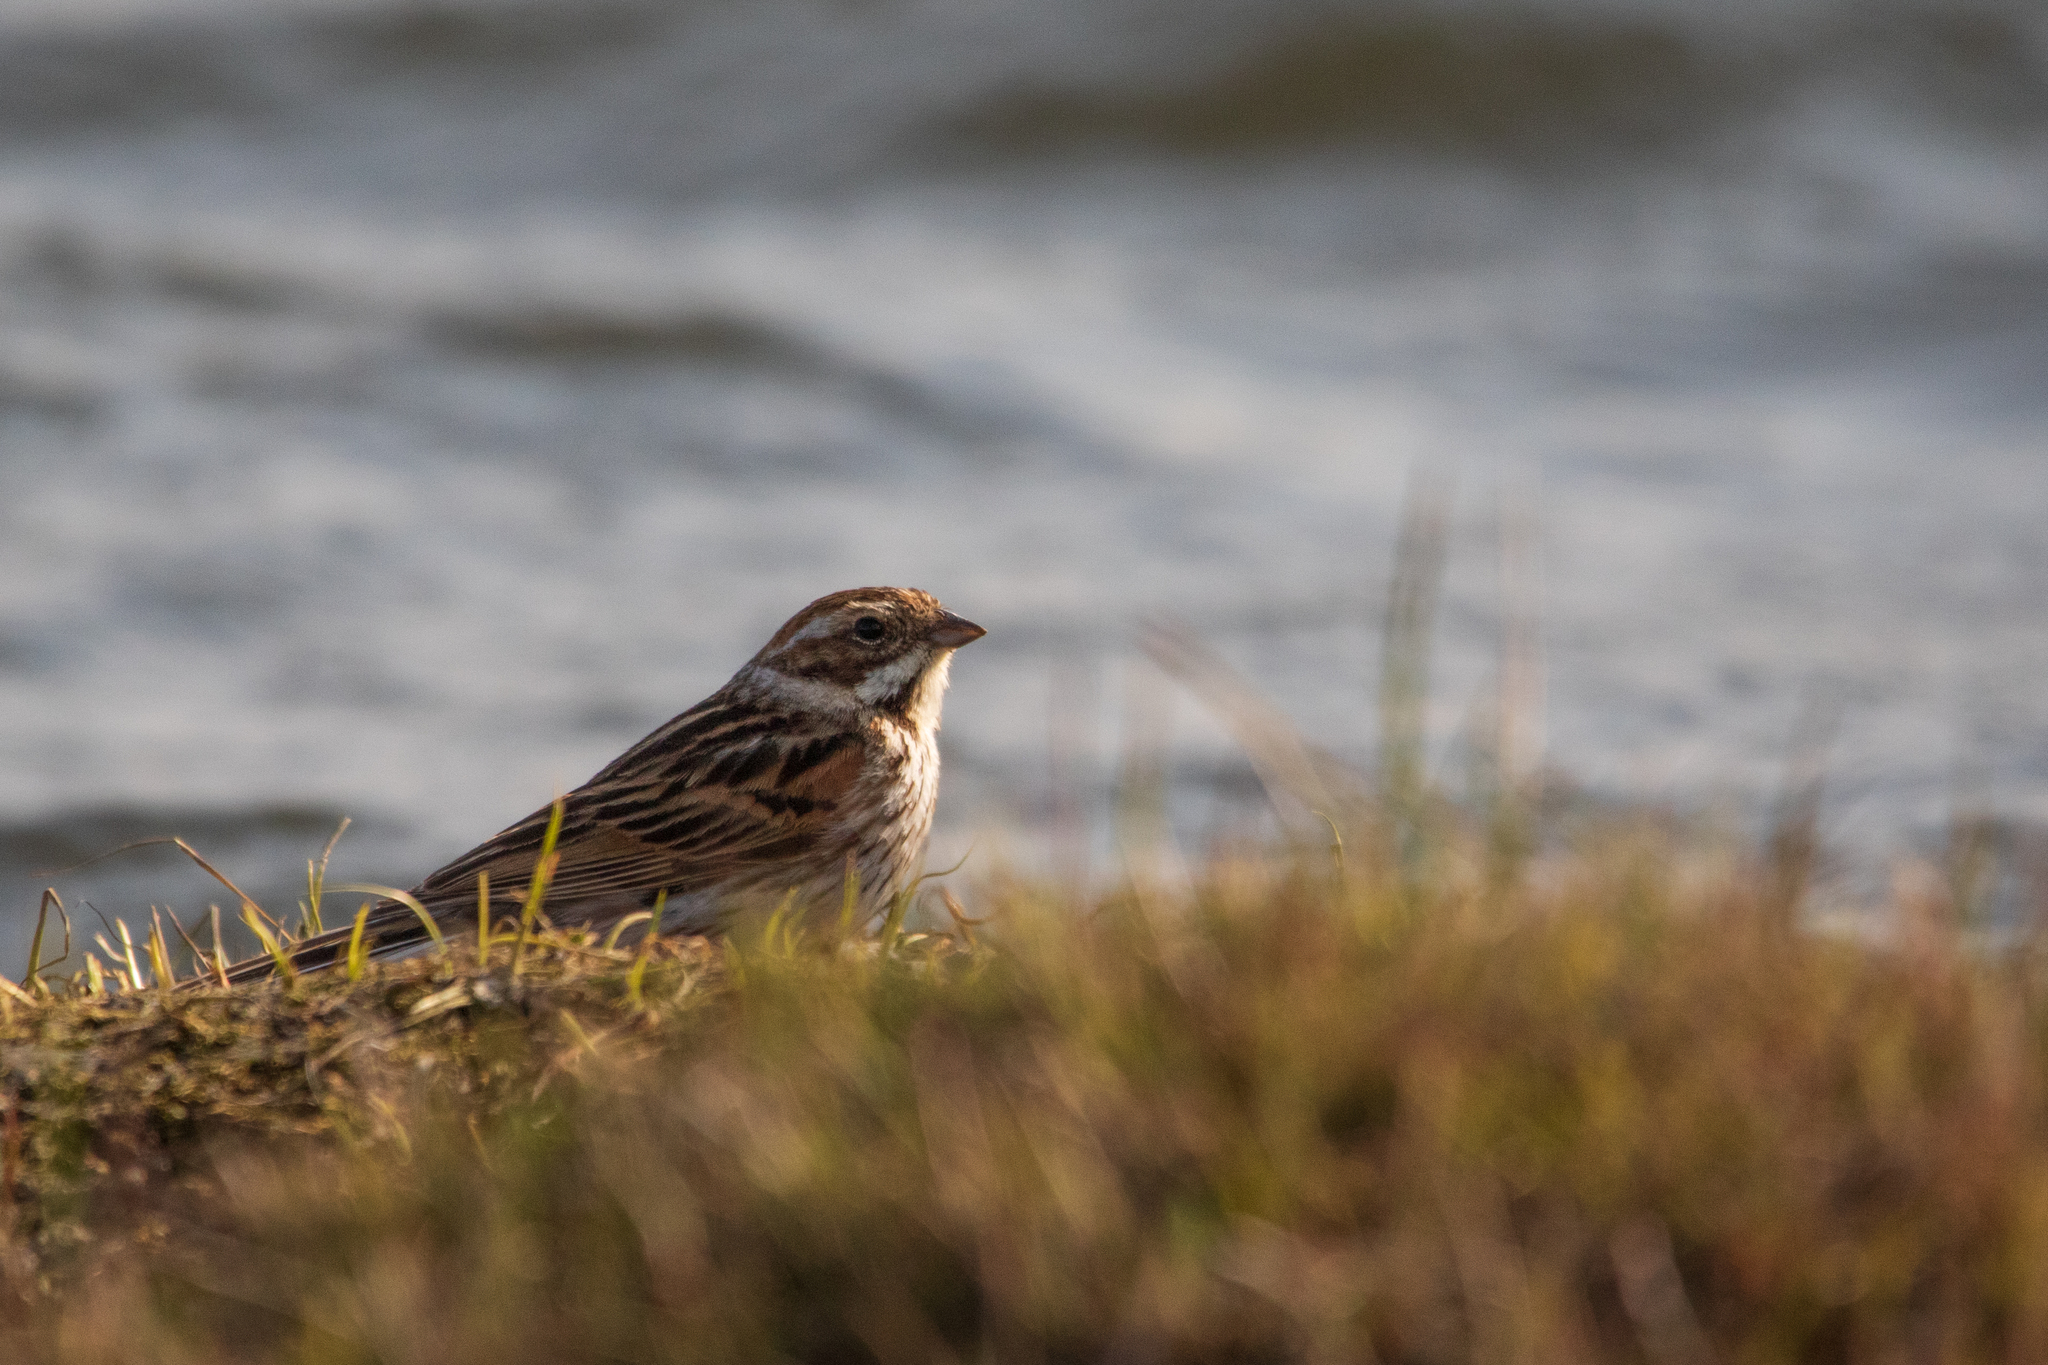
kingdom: Animalia
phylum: Chordata
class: Aves
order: Passeriformes
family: Emberizidae
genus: Emberiza
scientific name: Emberiza schoeniclus
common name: Reed bunting
